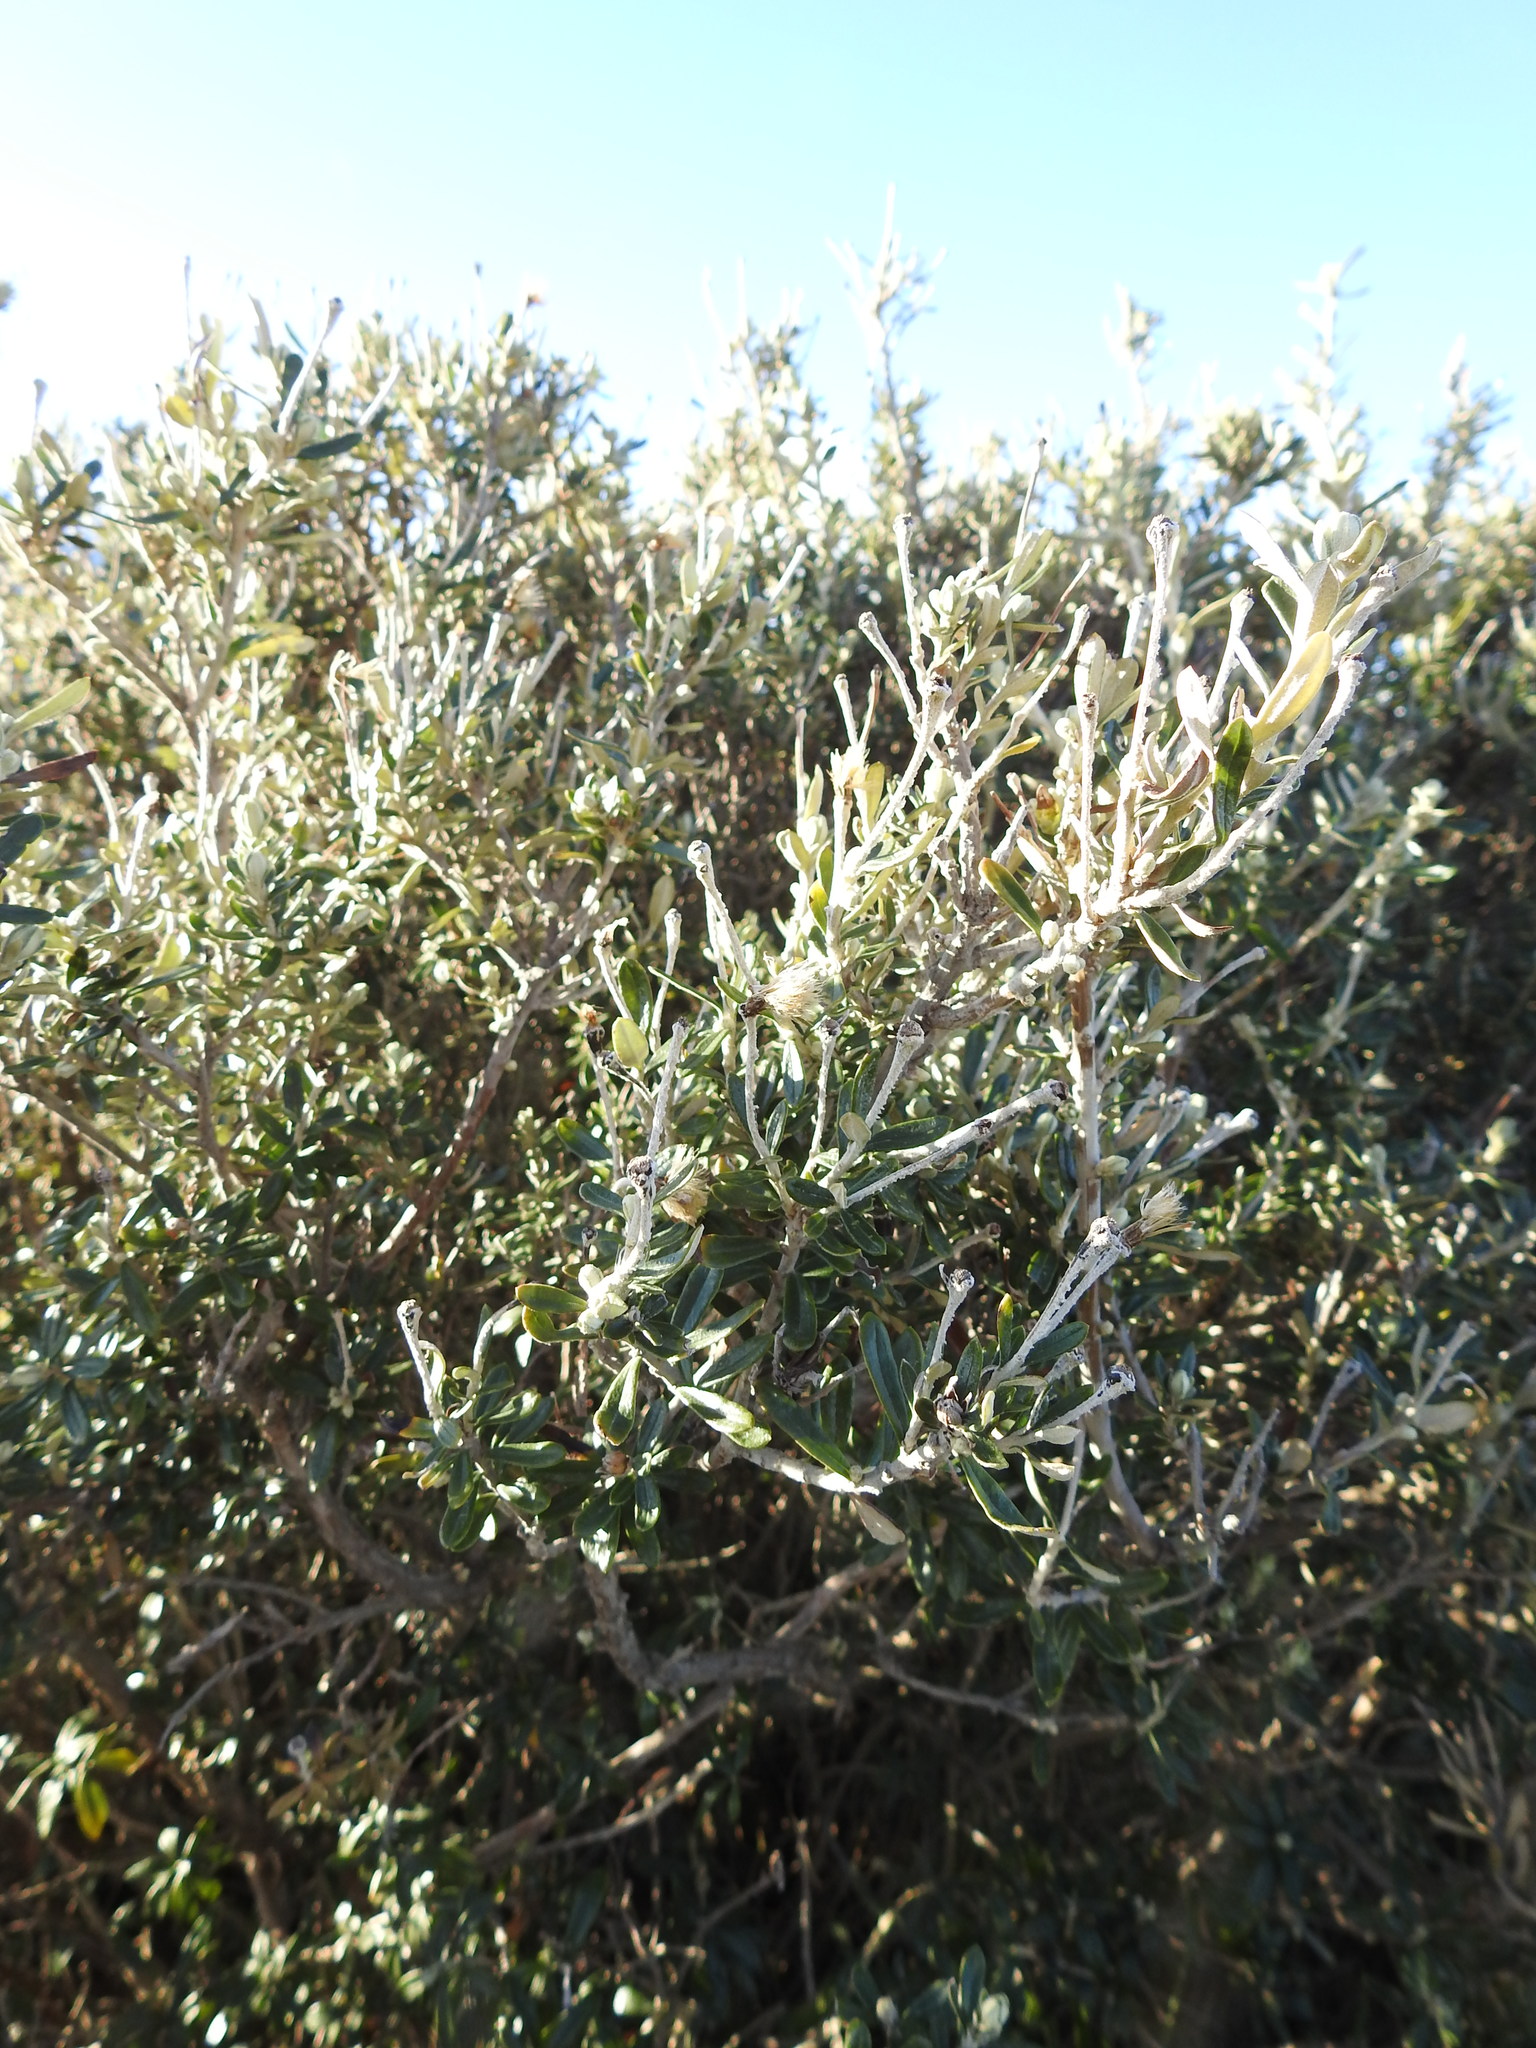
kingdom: Plantae
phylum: Tracheophyta
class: Magnoliopsida
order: Asterales
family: Asteraceae
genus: Chiliotrichum
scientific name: Chiliotrichum diffusum
